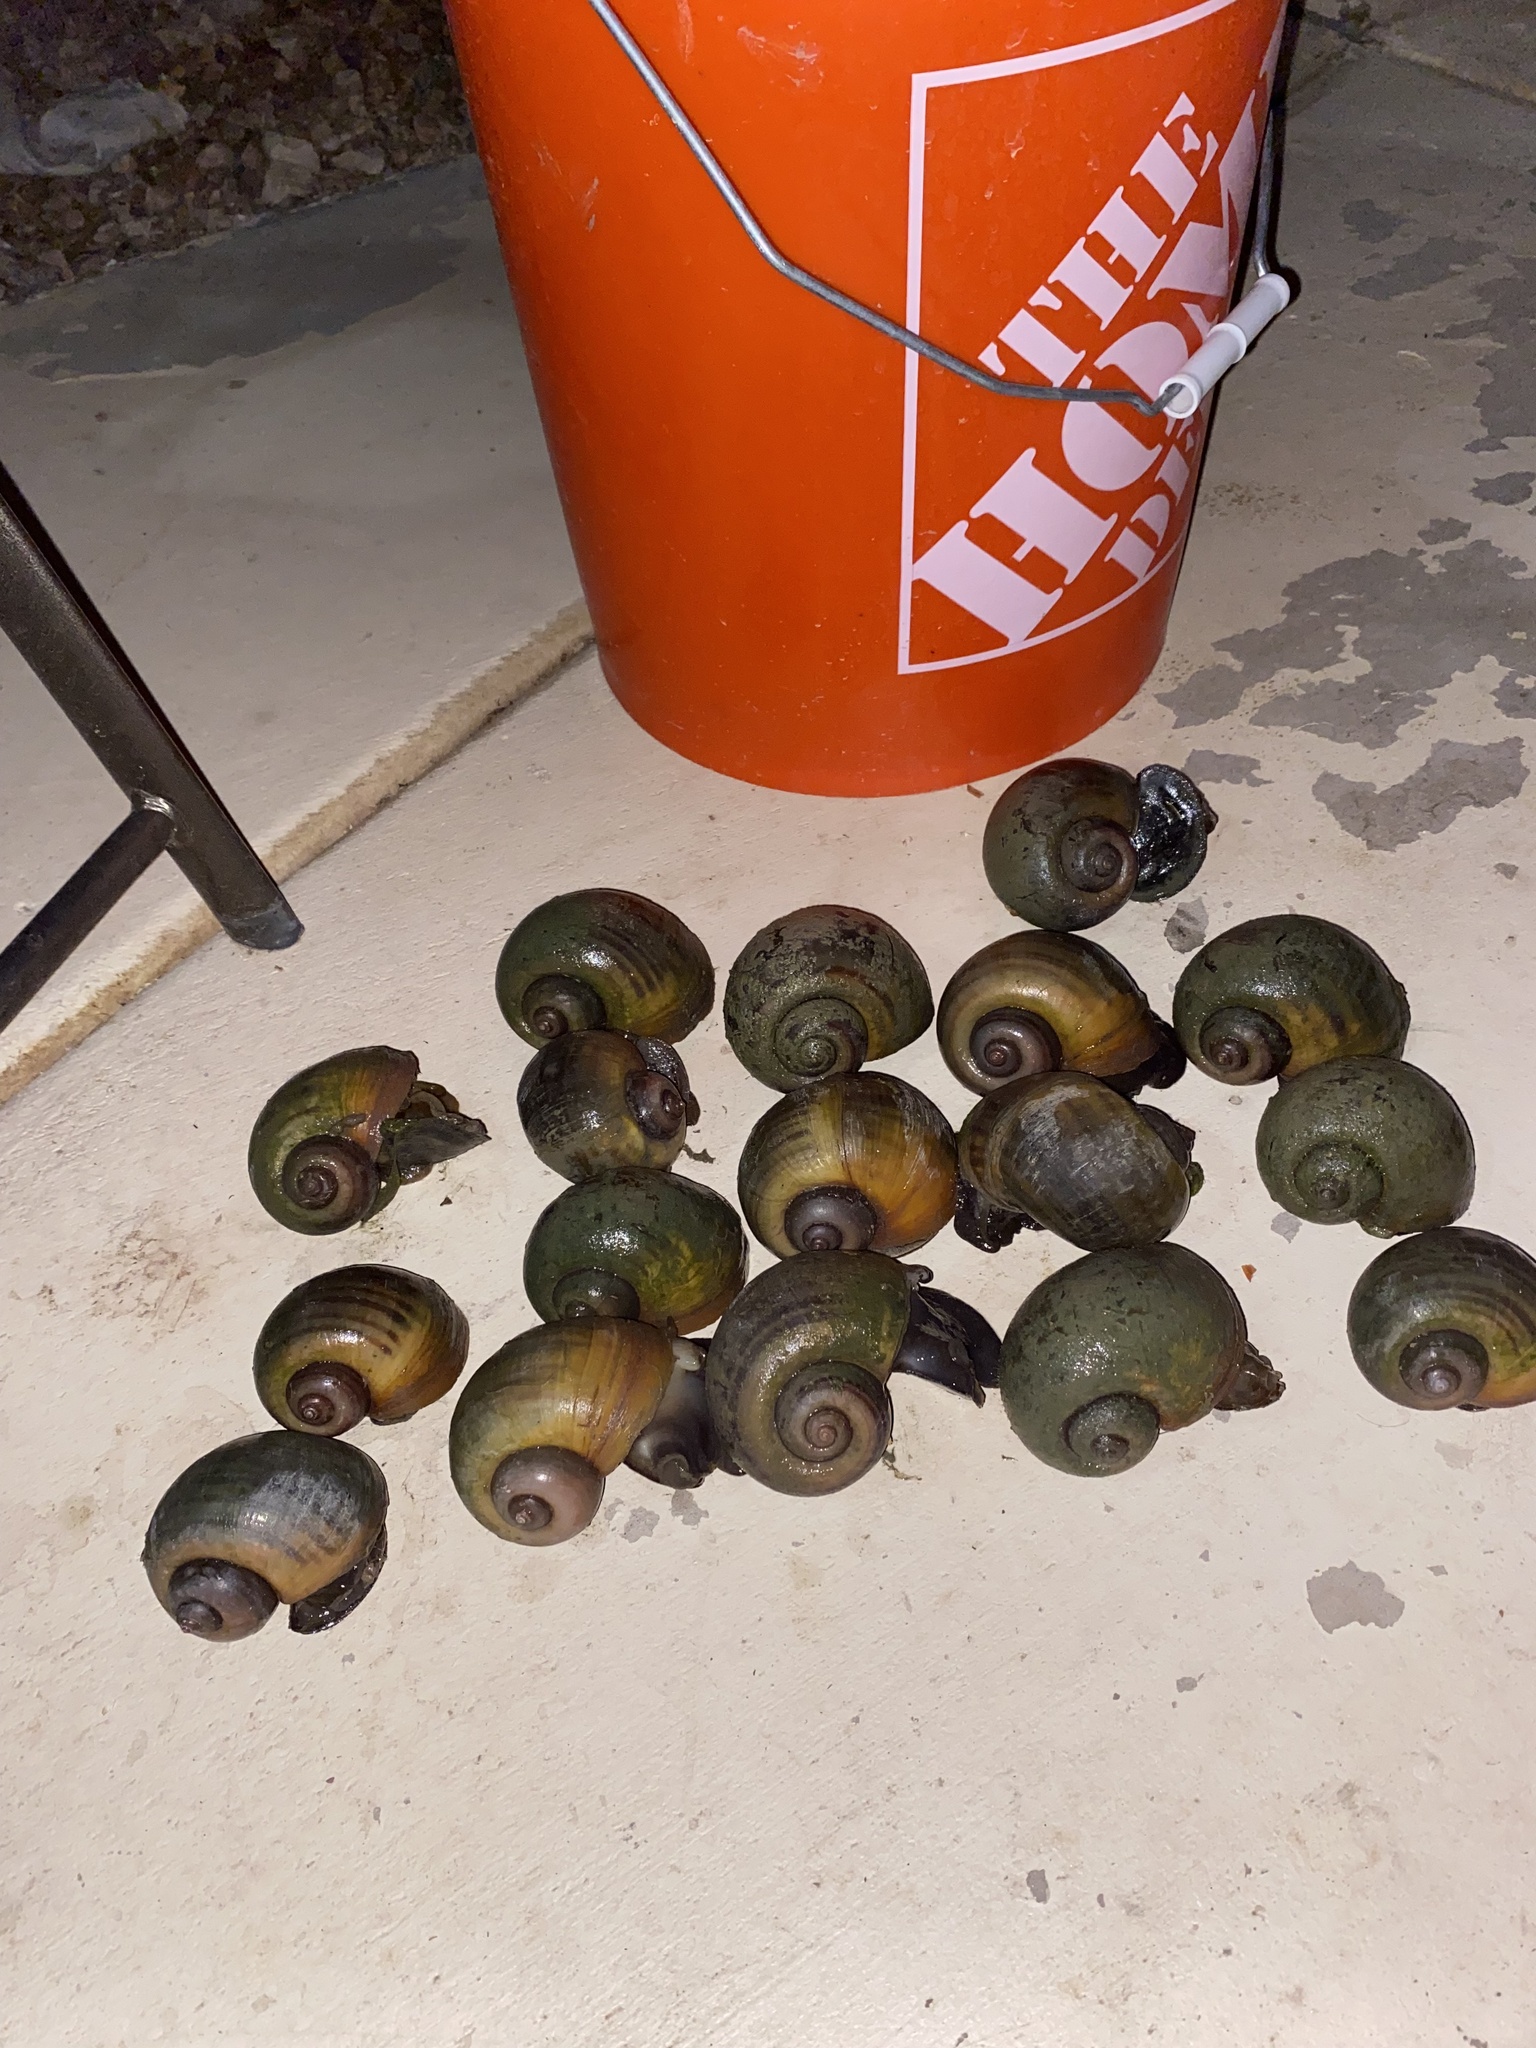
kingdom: Animalia
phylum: Mollusca
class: Gastropoda
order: Architaenioglossa
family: Ampullariidae
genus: Pomacea
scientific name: Pomacea maculata
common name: Giant applesnail
